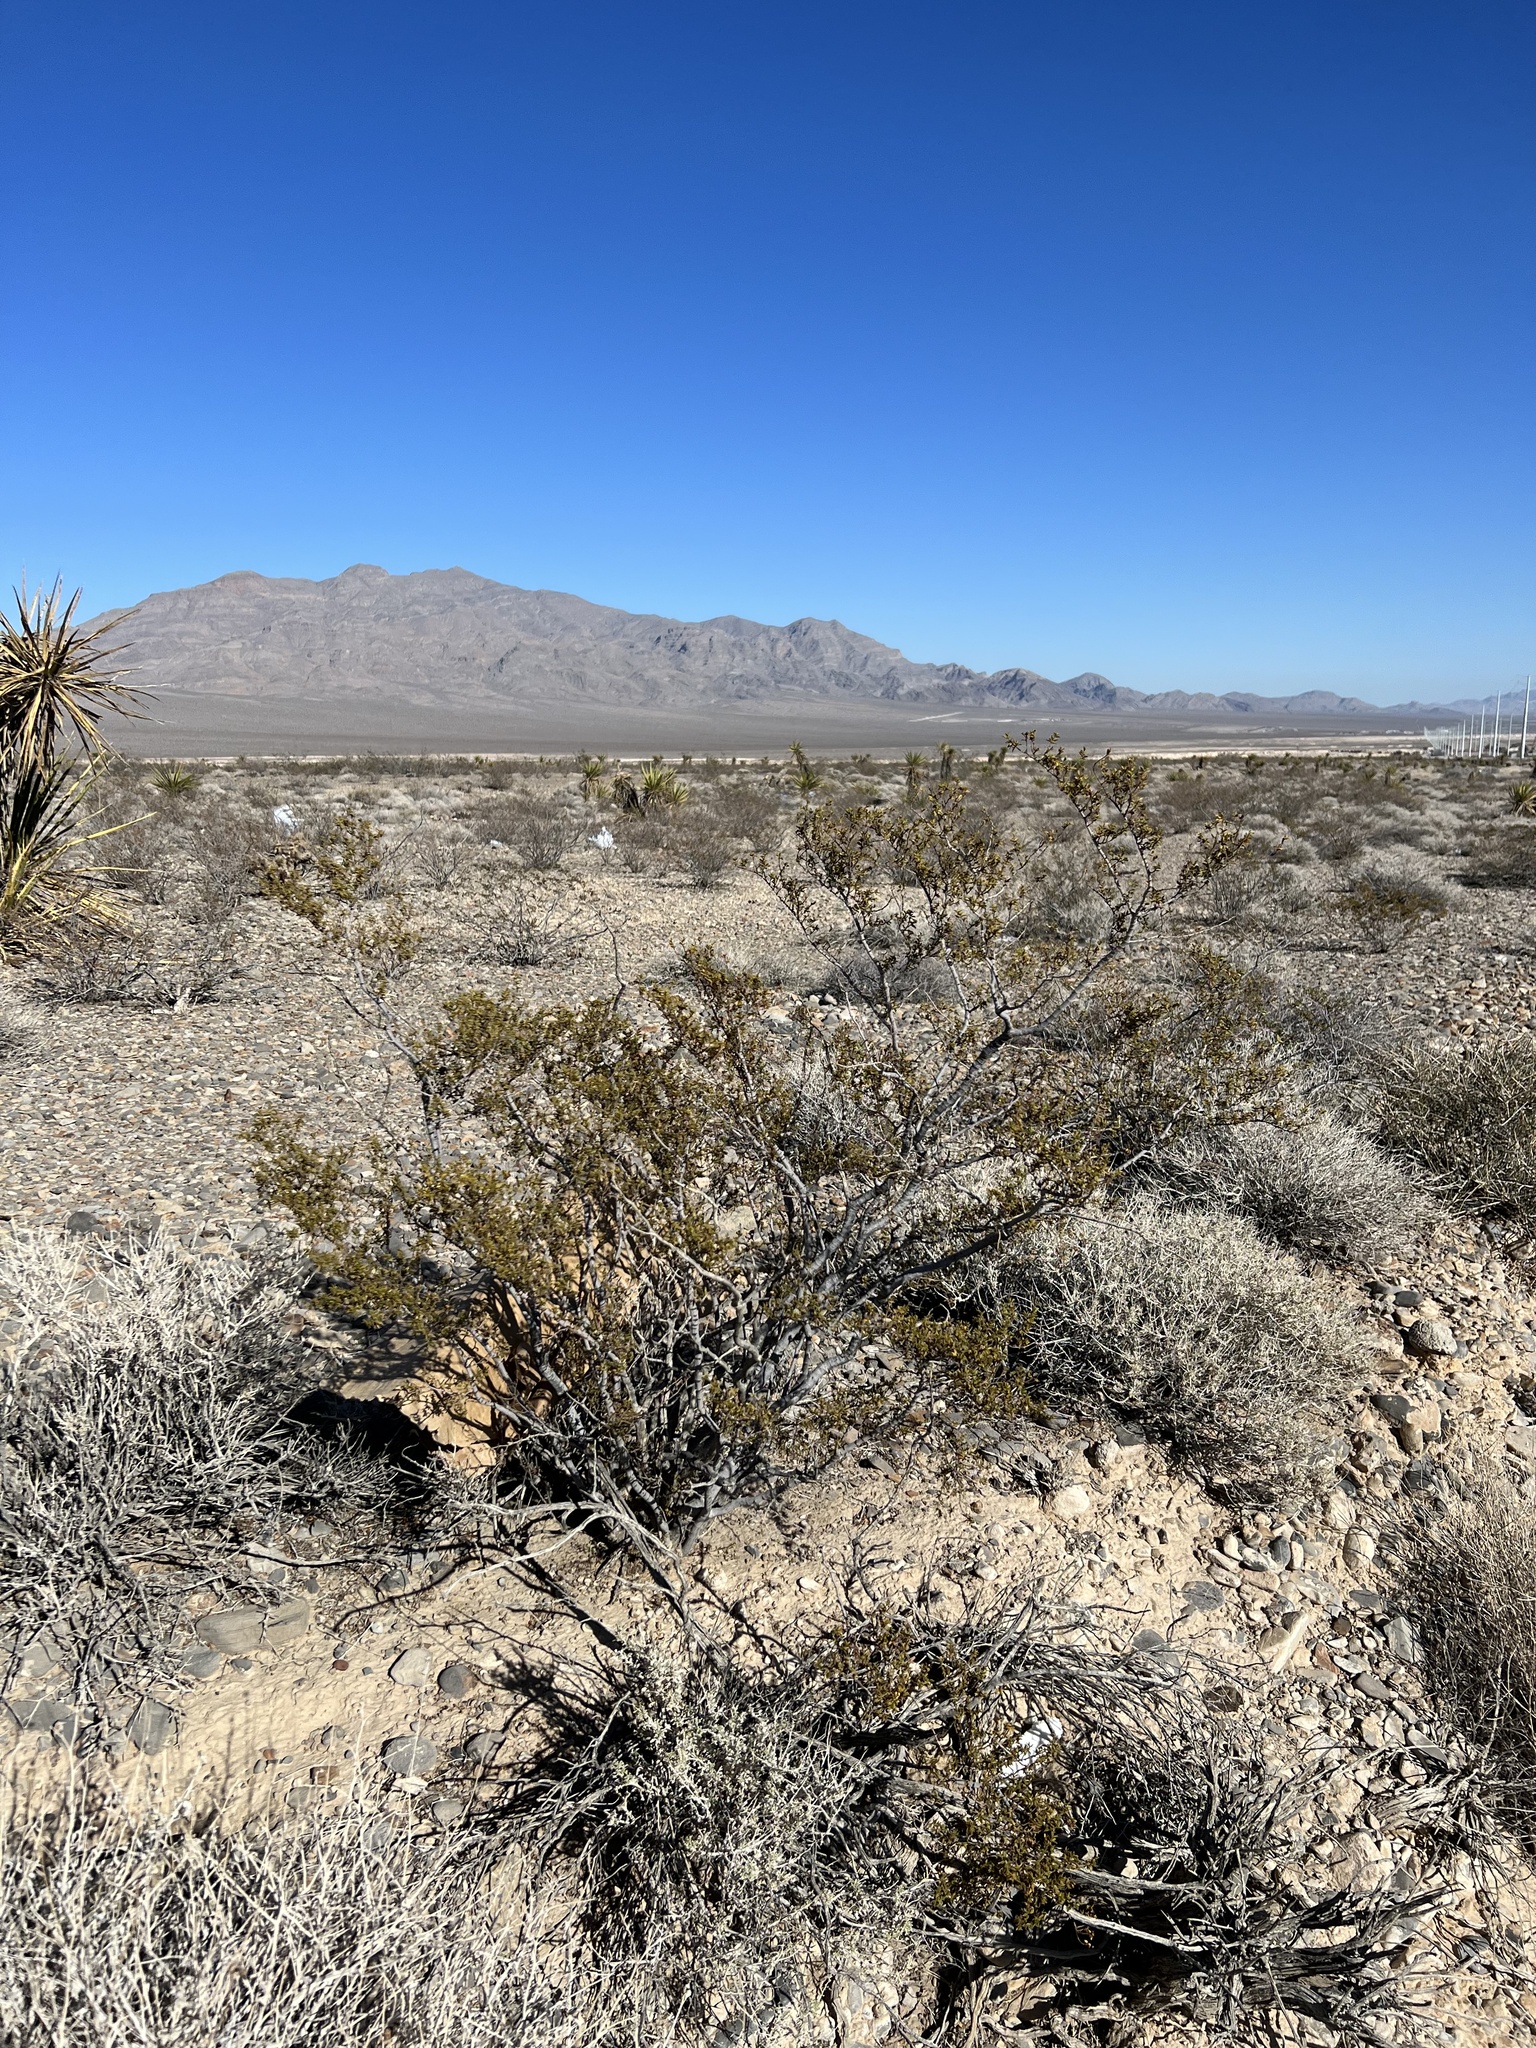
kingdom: Plantae
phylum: Tracheophyta
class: Magnoliopsida
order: Zygophyllales
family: Zygophyllaceae
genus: Larrea
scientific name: Larrea tridentata
